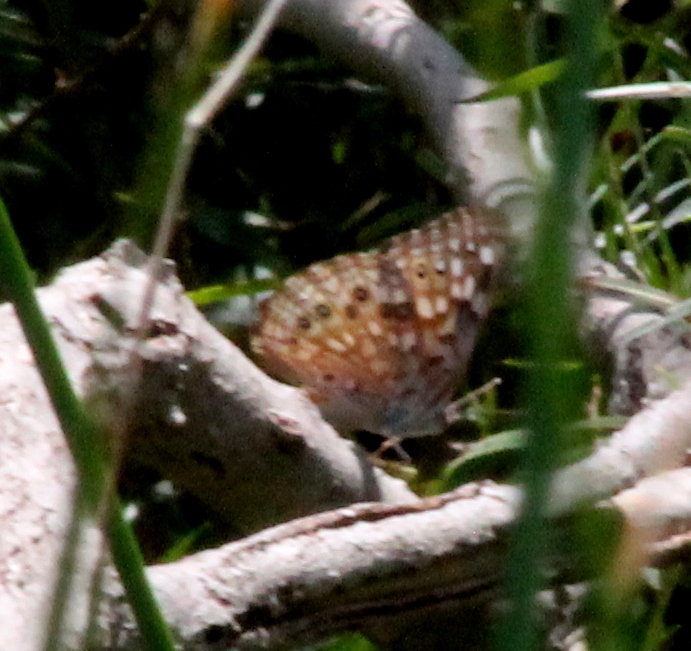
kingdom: Animalia
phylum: Arthropoda
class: Insecta
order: Lepidoptera
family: Nymphalidae
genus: Asterocampa
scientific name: Asterocampa celtis
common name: Hackberry emperor
